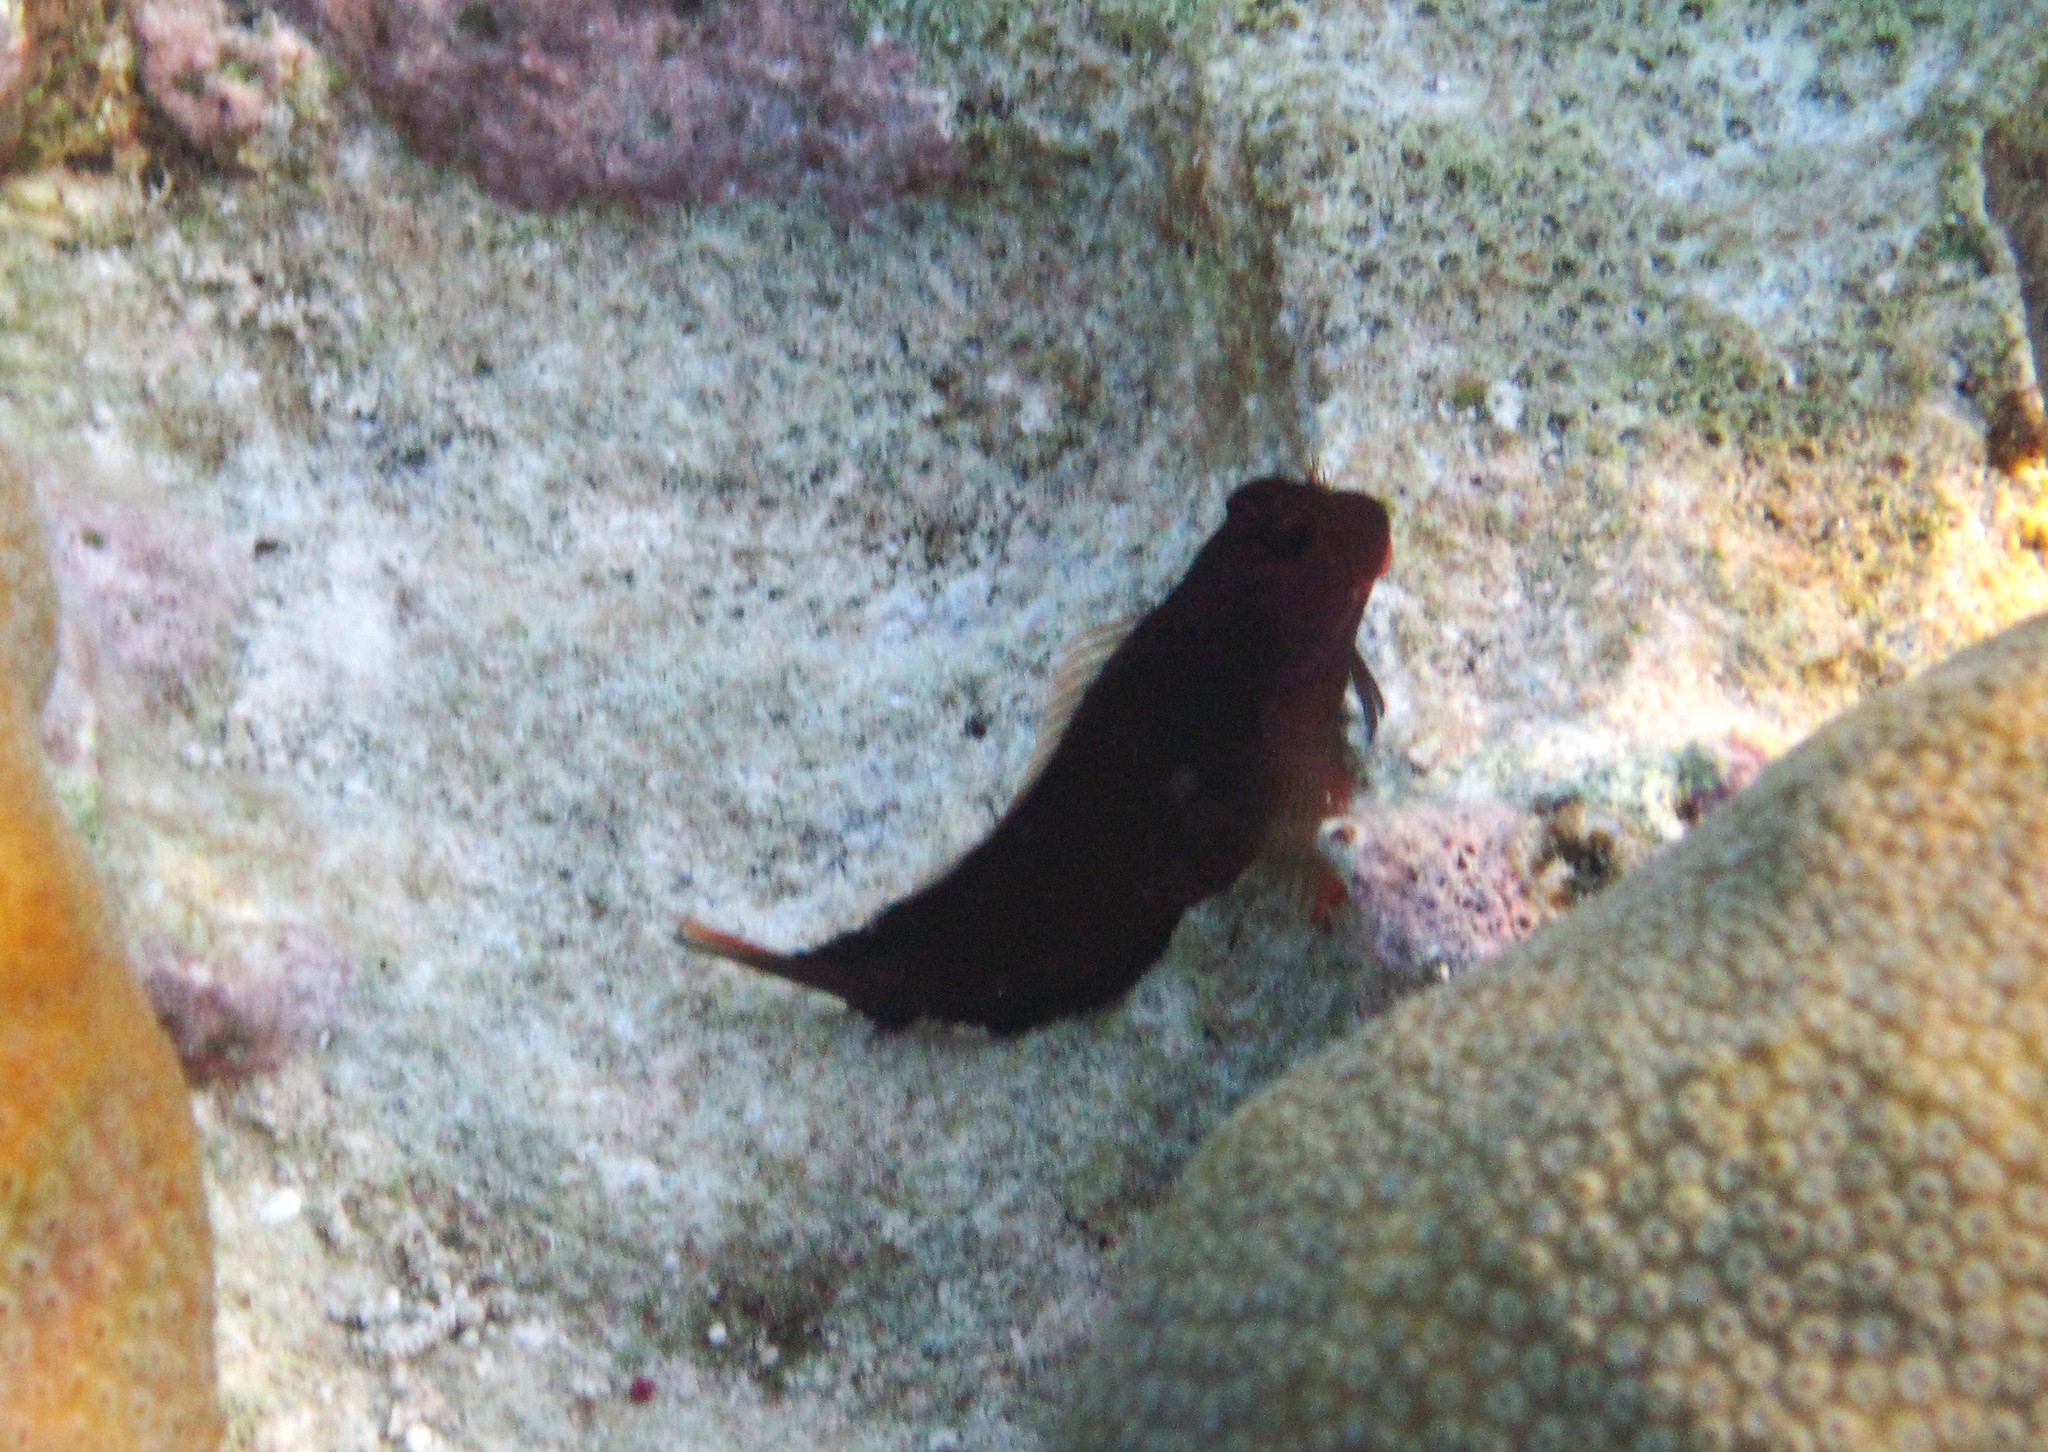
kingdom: Animalia
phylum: Chordata
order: Perciformes
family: Blenniidae
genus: Ophioblennius
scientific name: Ophioblennius macclurei
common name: Redlip blenny
